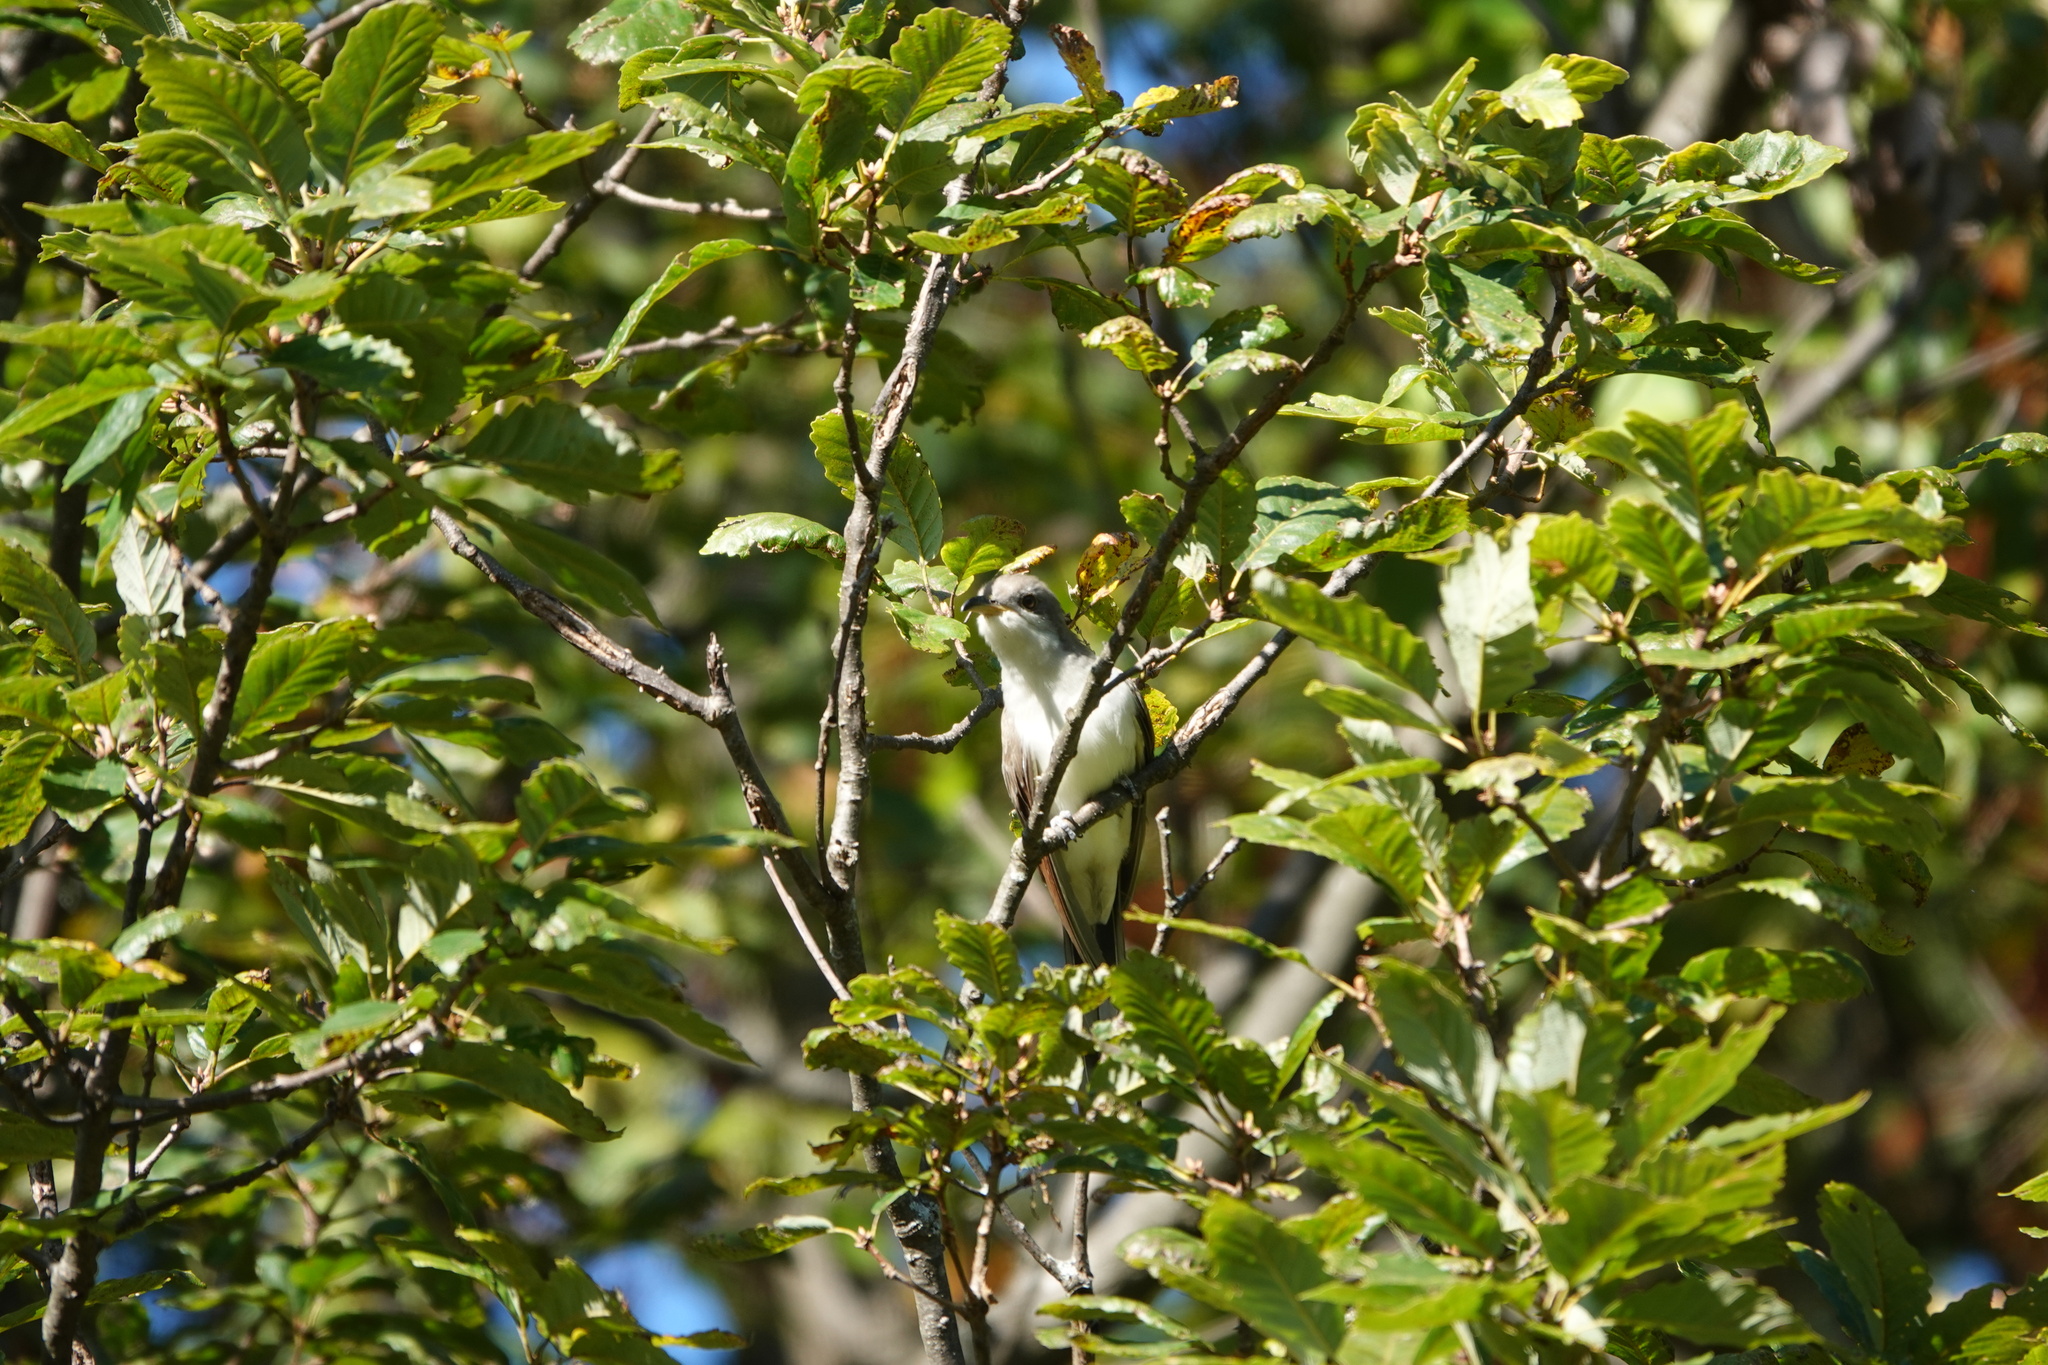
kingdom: Animalia
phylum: Chordata
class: Aves
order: Cuculiformes
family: Cuculidae
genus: Coccyzus
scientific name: Coccyzus americanus
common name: Yellow-billed cuckoo
